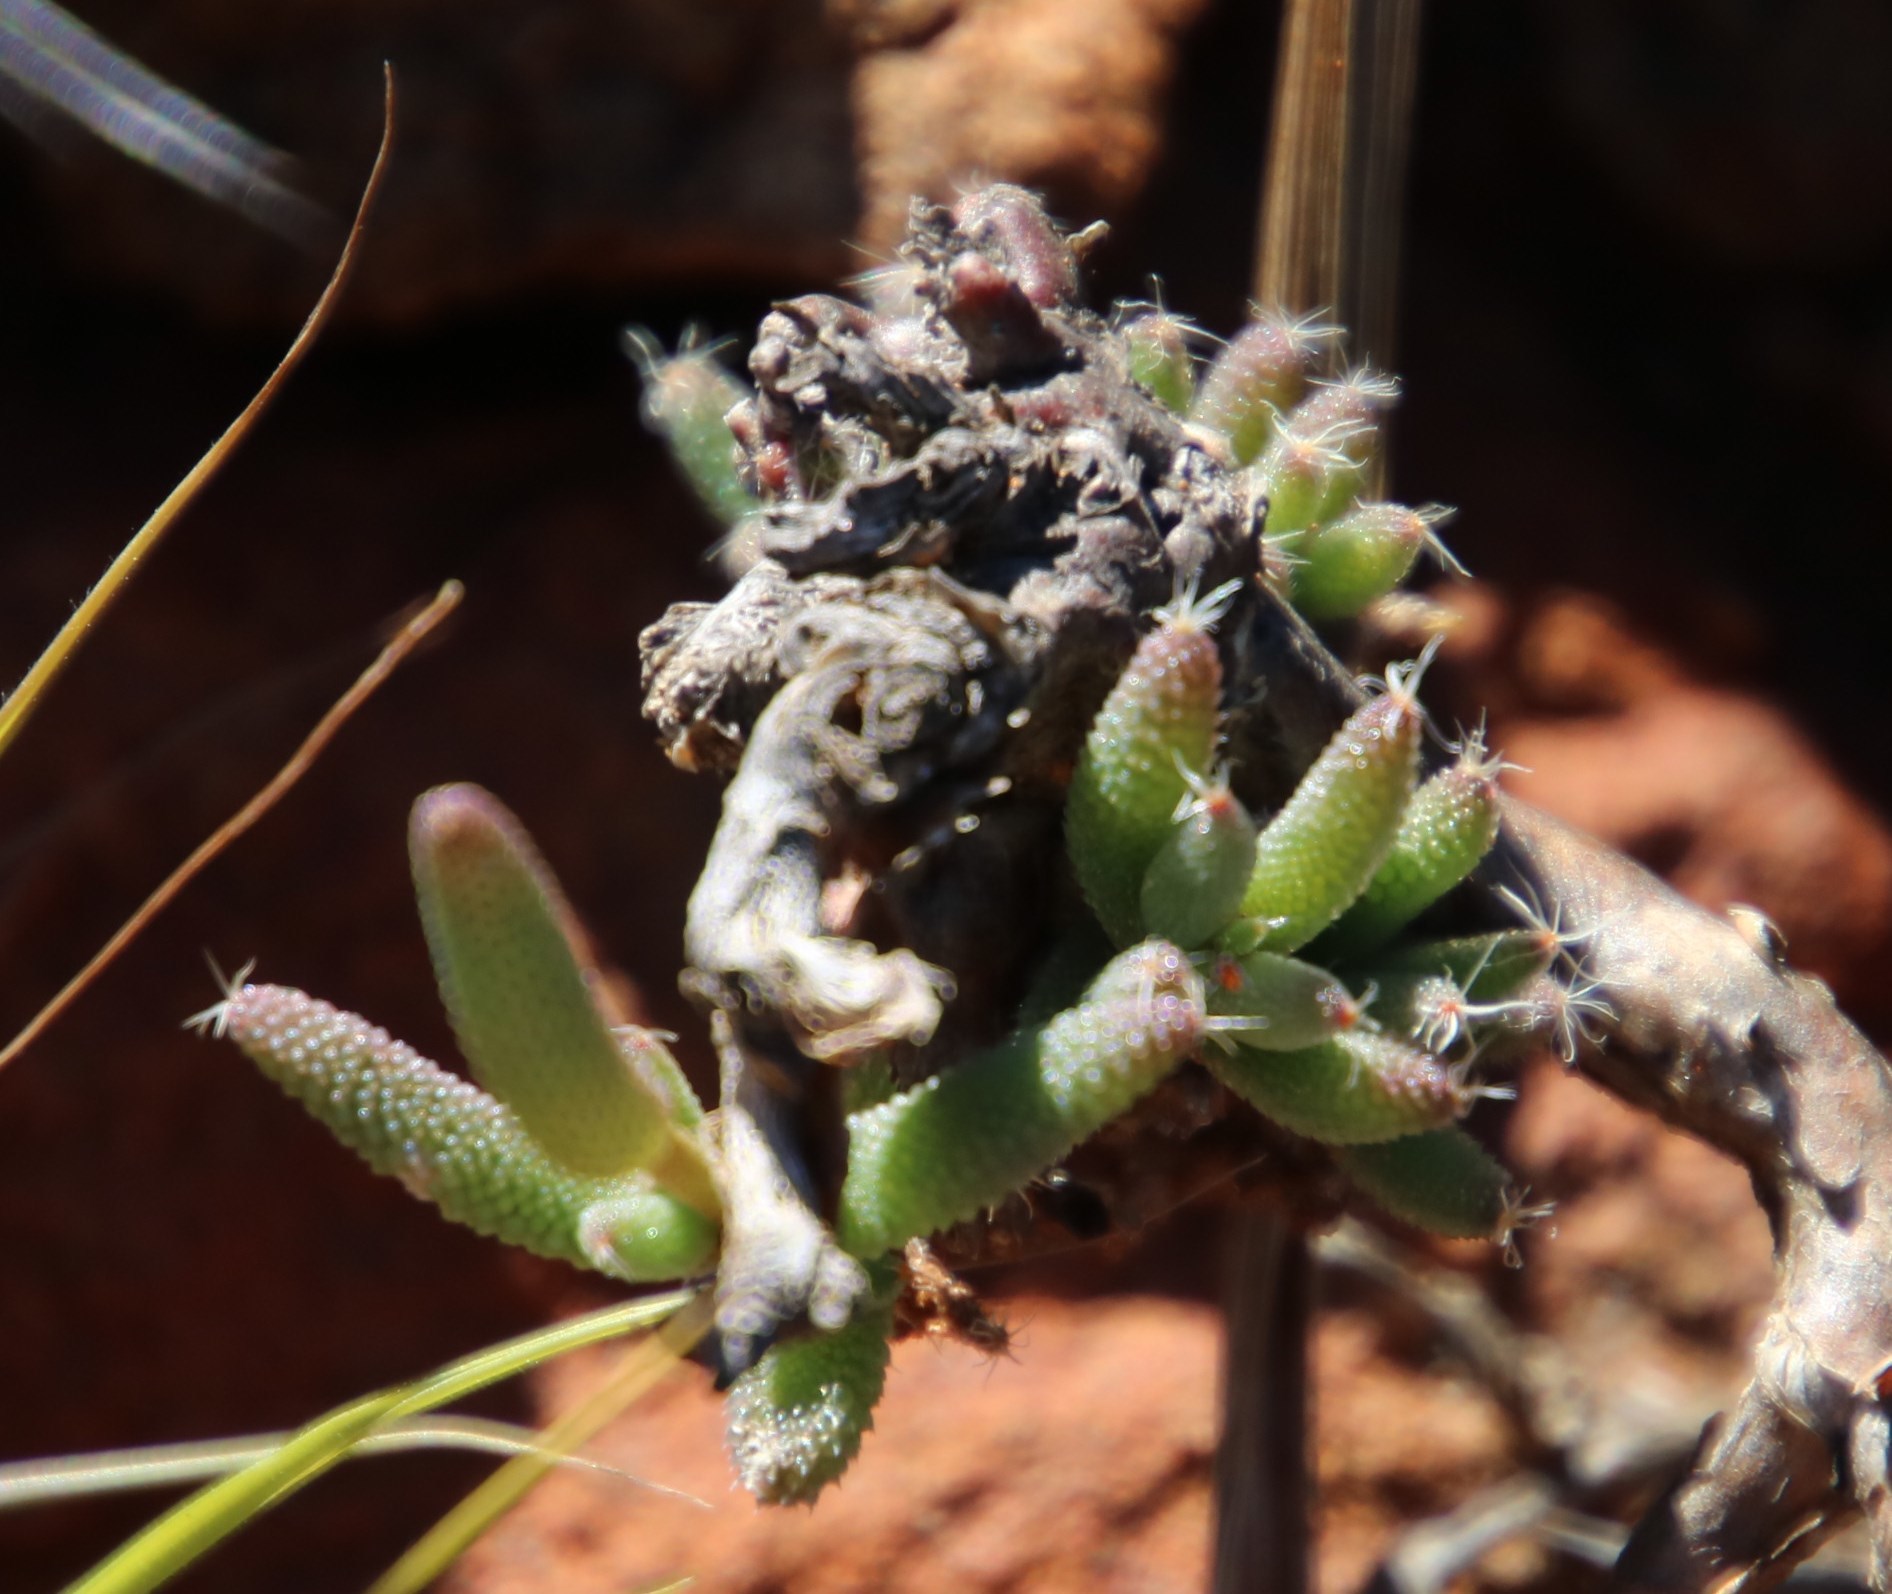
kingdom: Plantae
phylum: Tracheophyta
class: Magnoliopsida
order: Caryophyllales
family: Aizoaceae
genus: Trichodiadema
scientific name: Trichodiadema setuliferum
